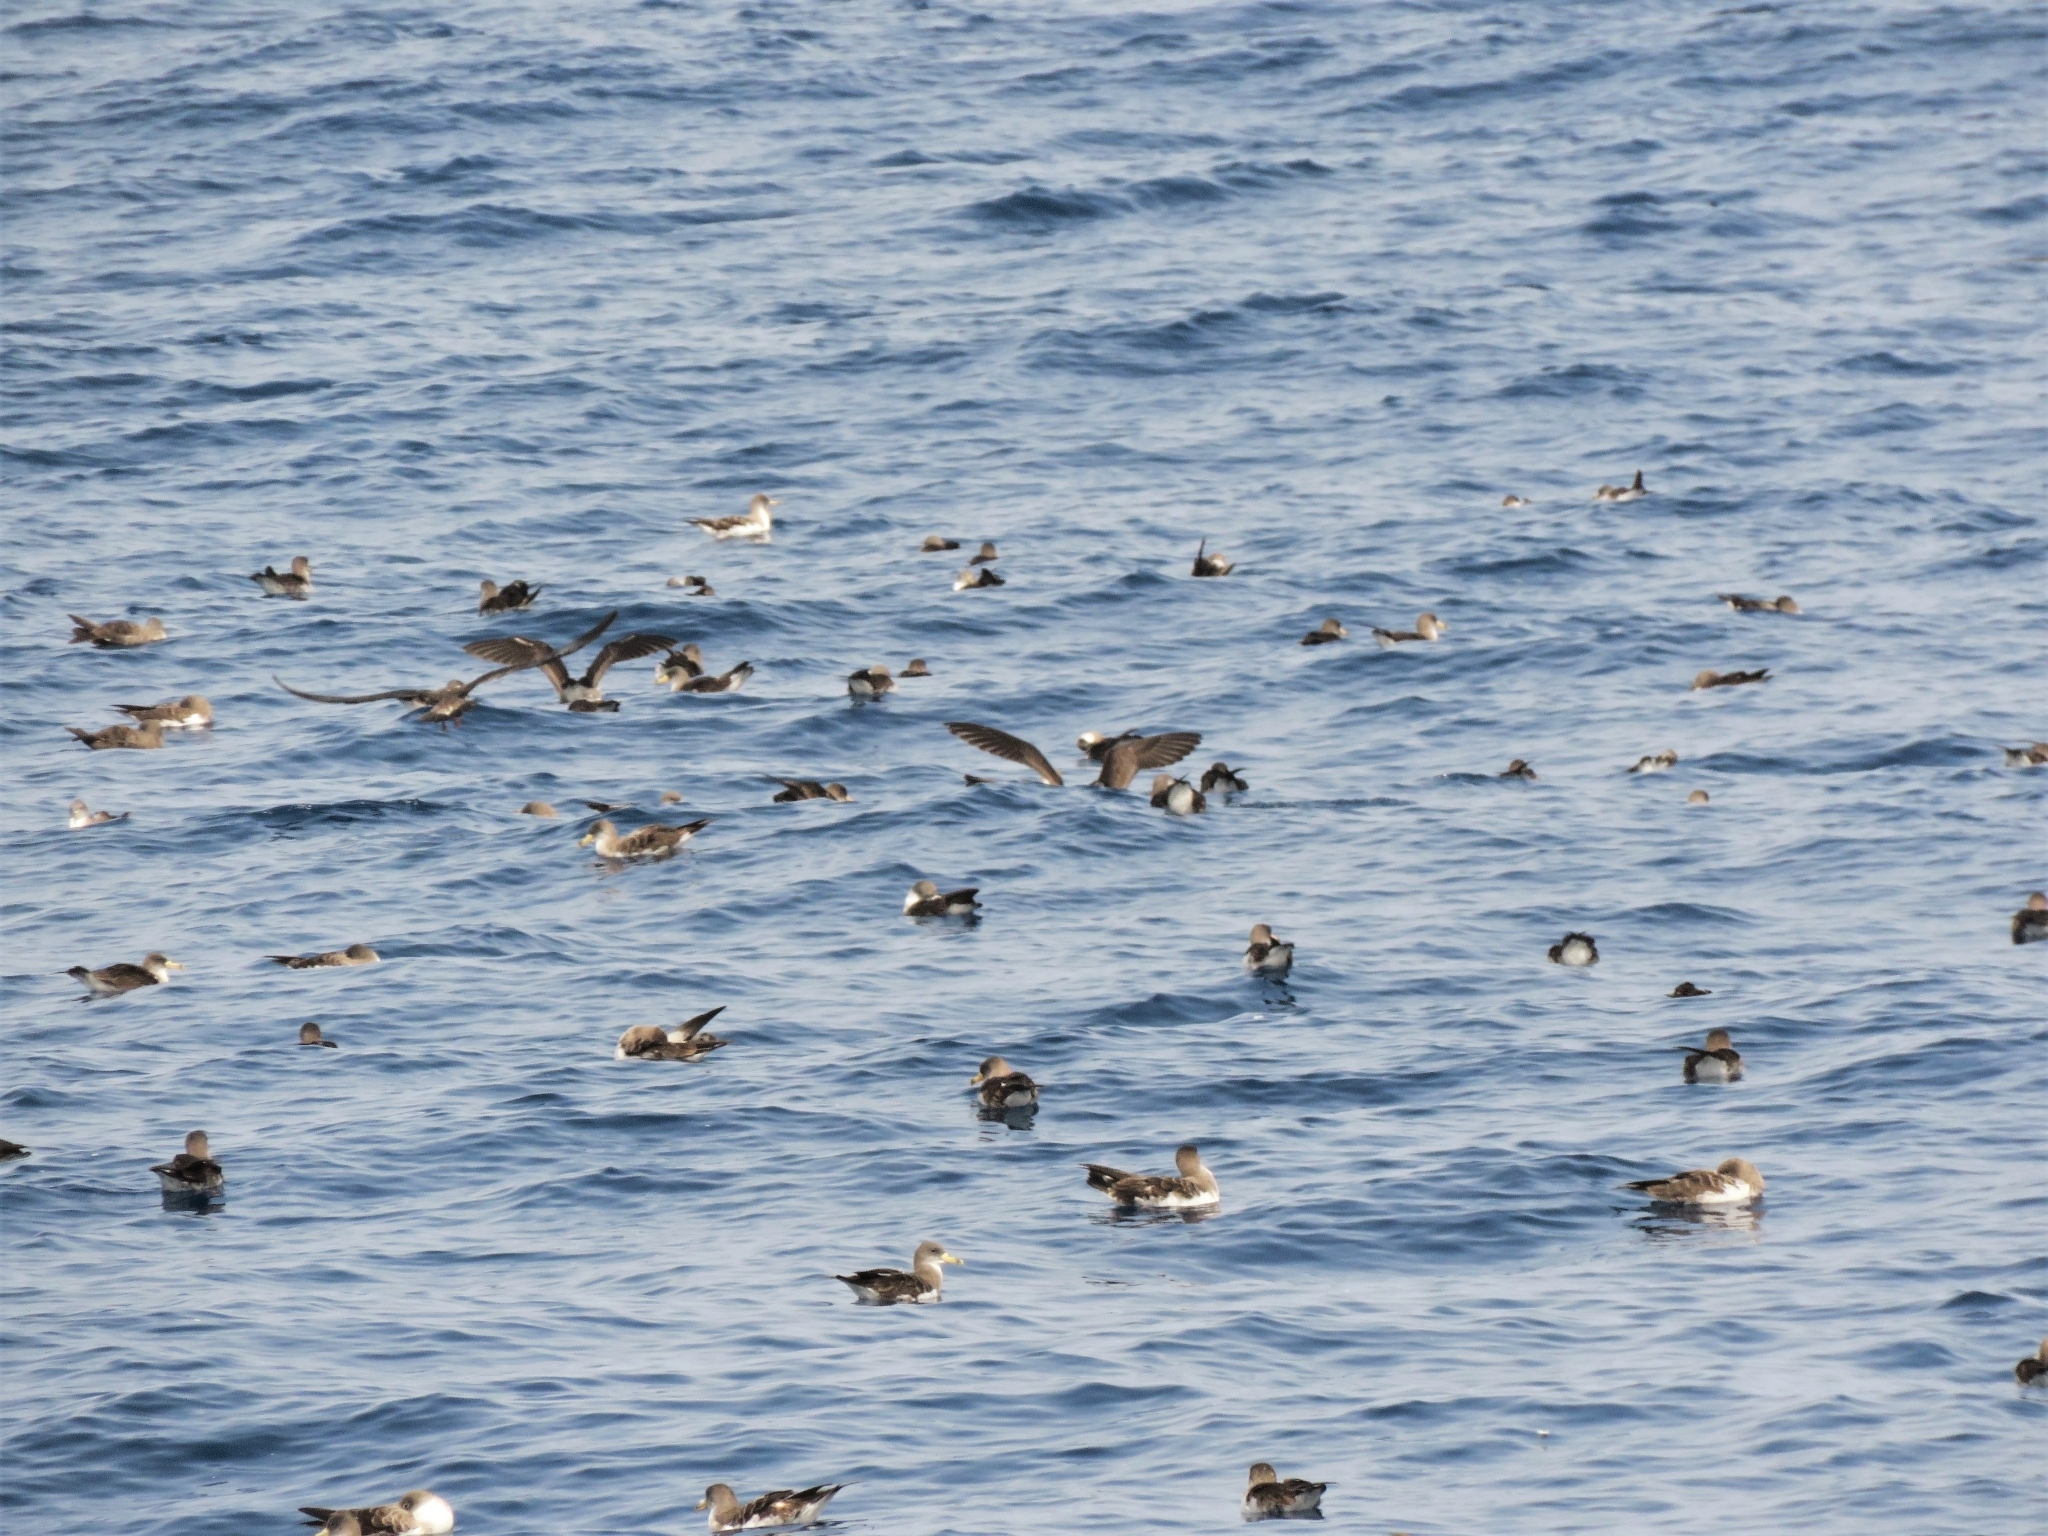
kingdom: Animalia
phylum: Chordata
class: Aves
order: Procellariiformes
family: Procellariidae
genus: Calonectris
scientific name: Calonectris diomedea
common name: Cory's shearwater
